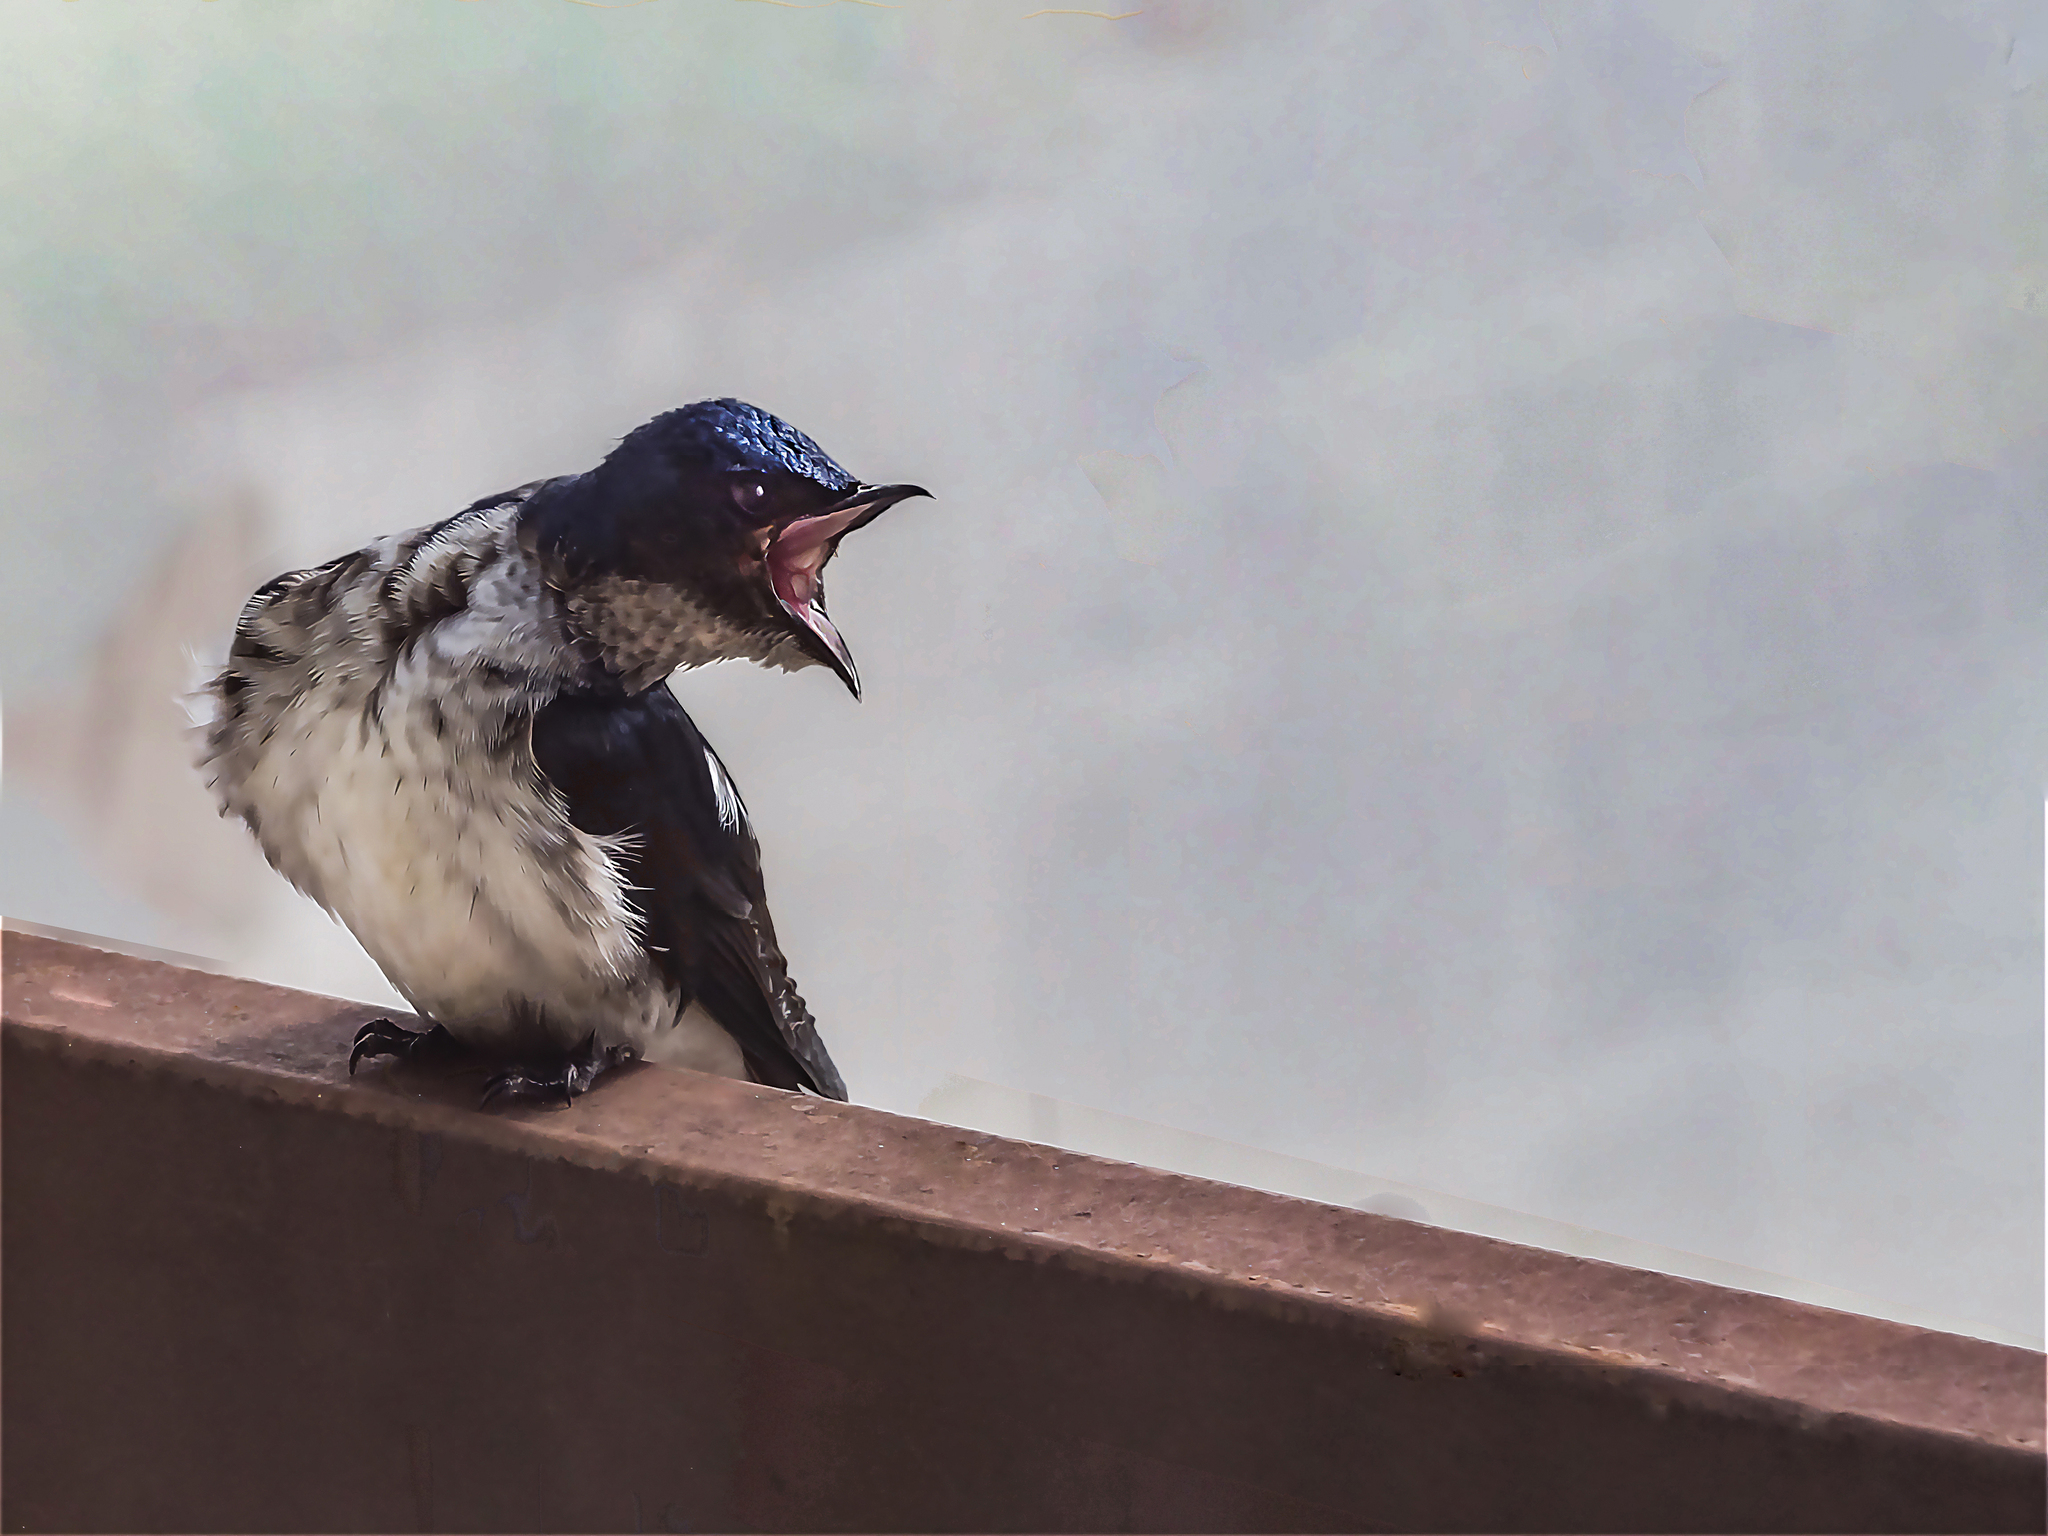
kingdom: Animalia
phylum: Chordata
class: Aves
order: Passeriformes
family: Hirundinidae
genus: Progne
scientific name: Progne chalybea
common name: Grey-breasted martin
